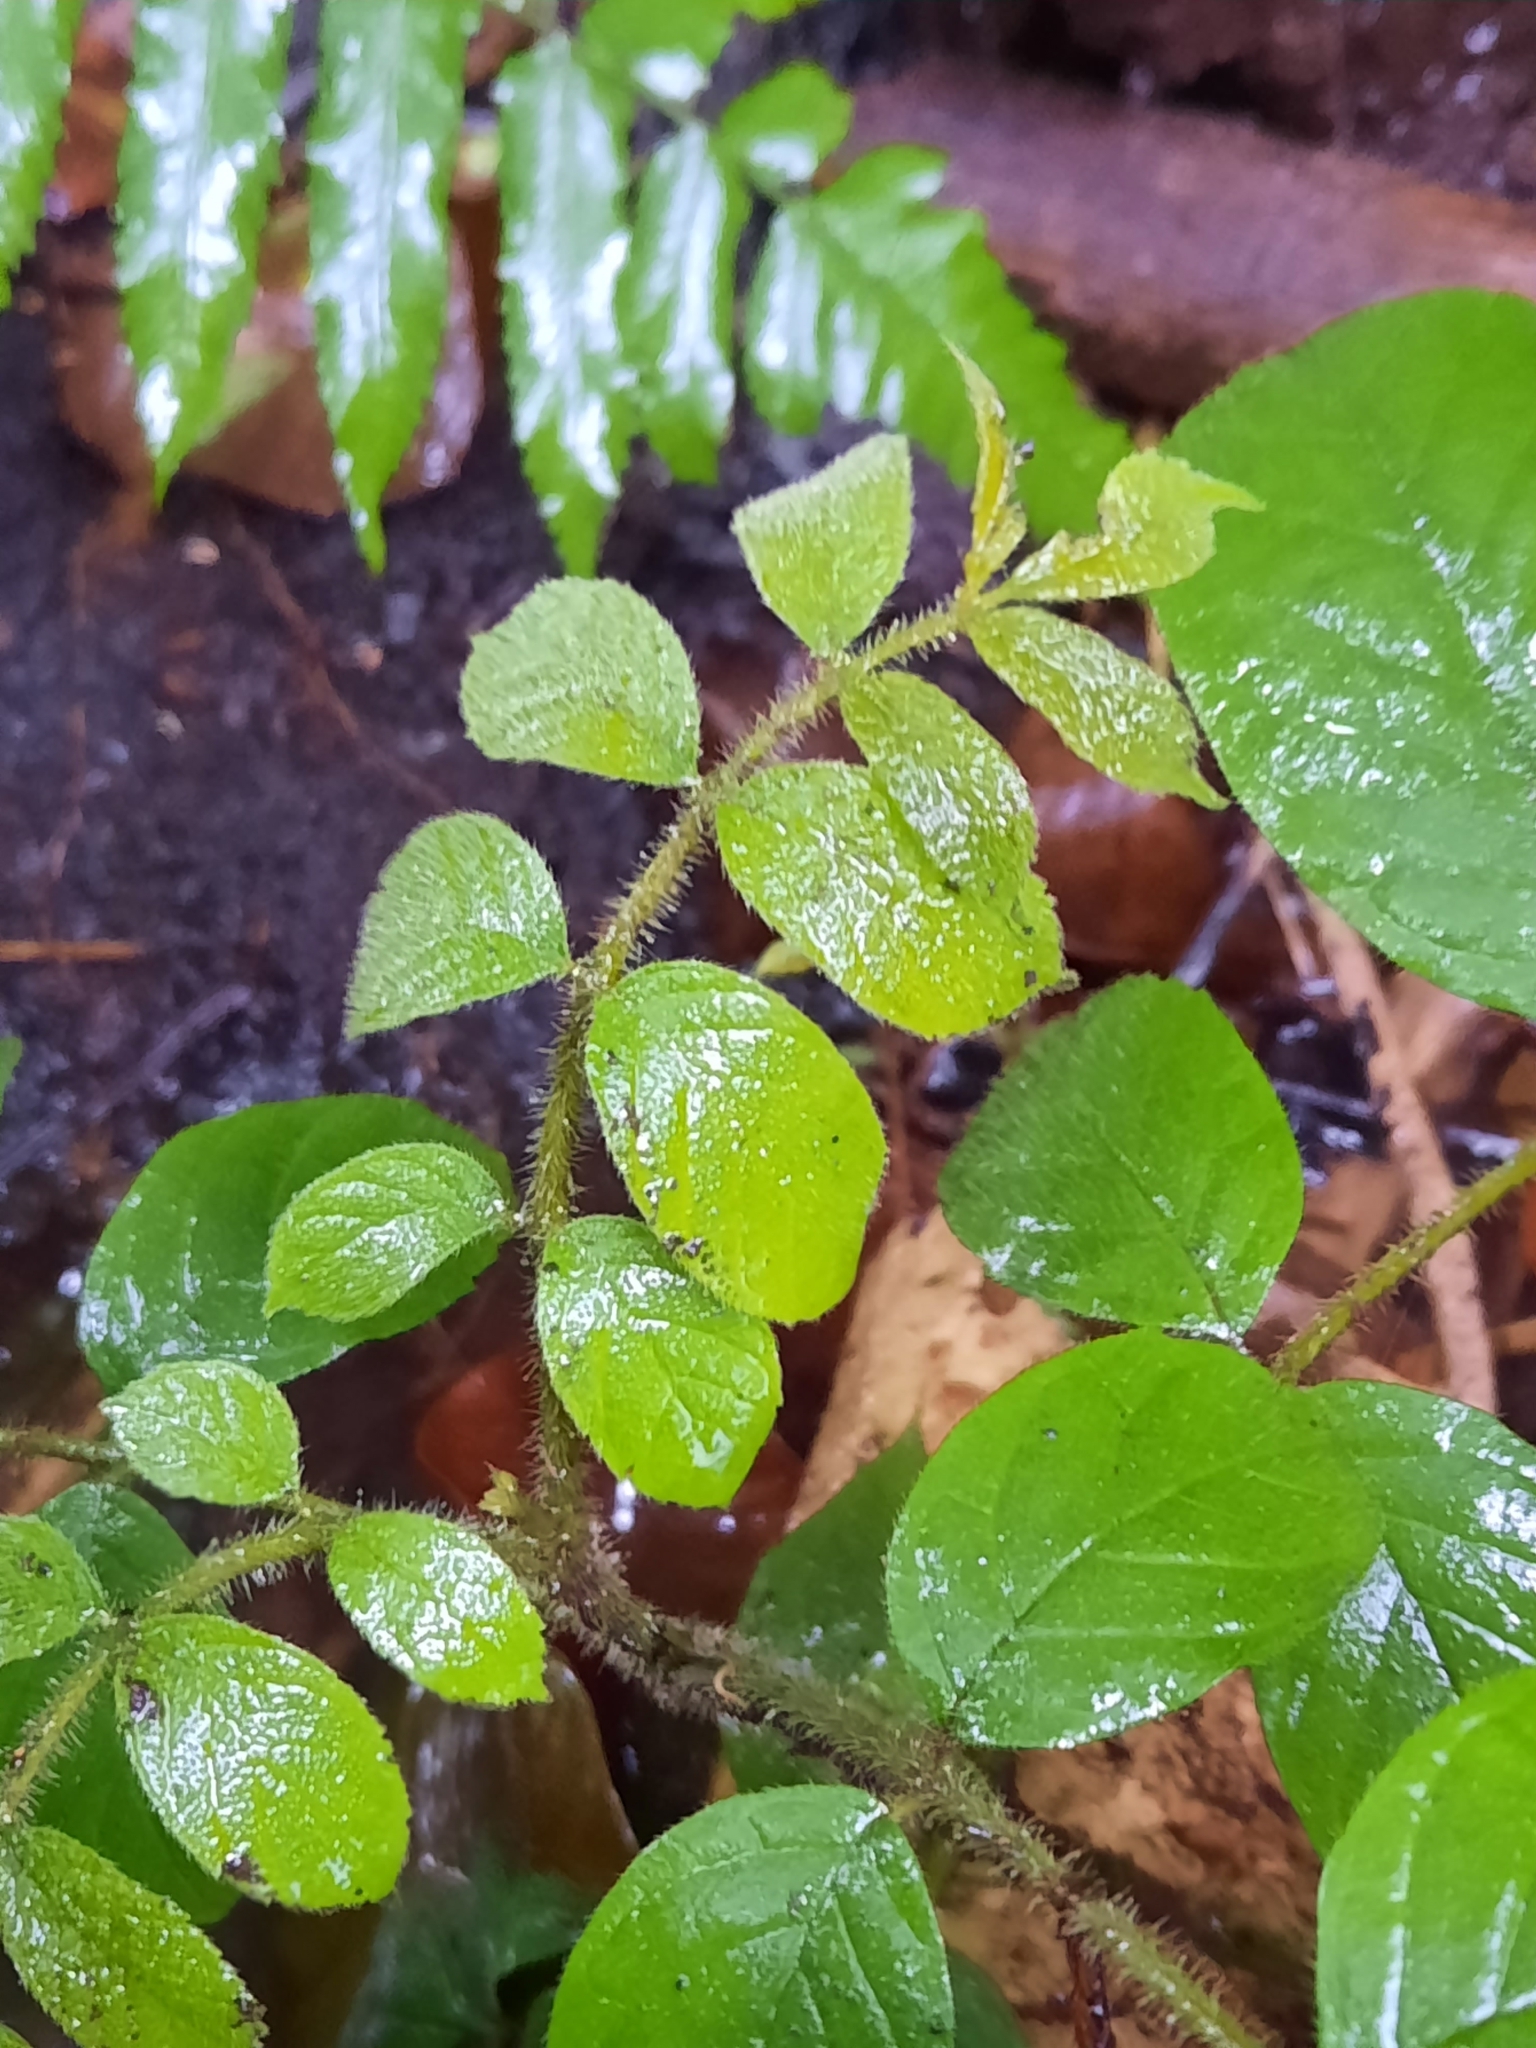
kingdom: Plantae
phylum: Tracheophyta
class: Magnoliopsida
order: Lamiales
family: Bignoniaceae
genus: Spathodea
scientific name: Spathodea campanulata
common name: African tuliptree
